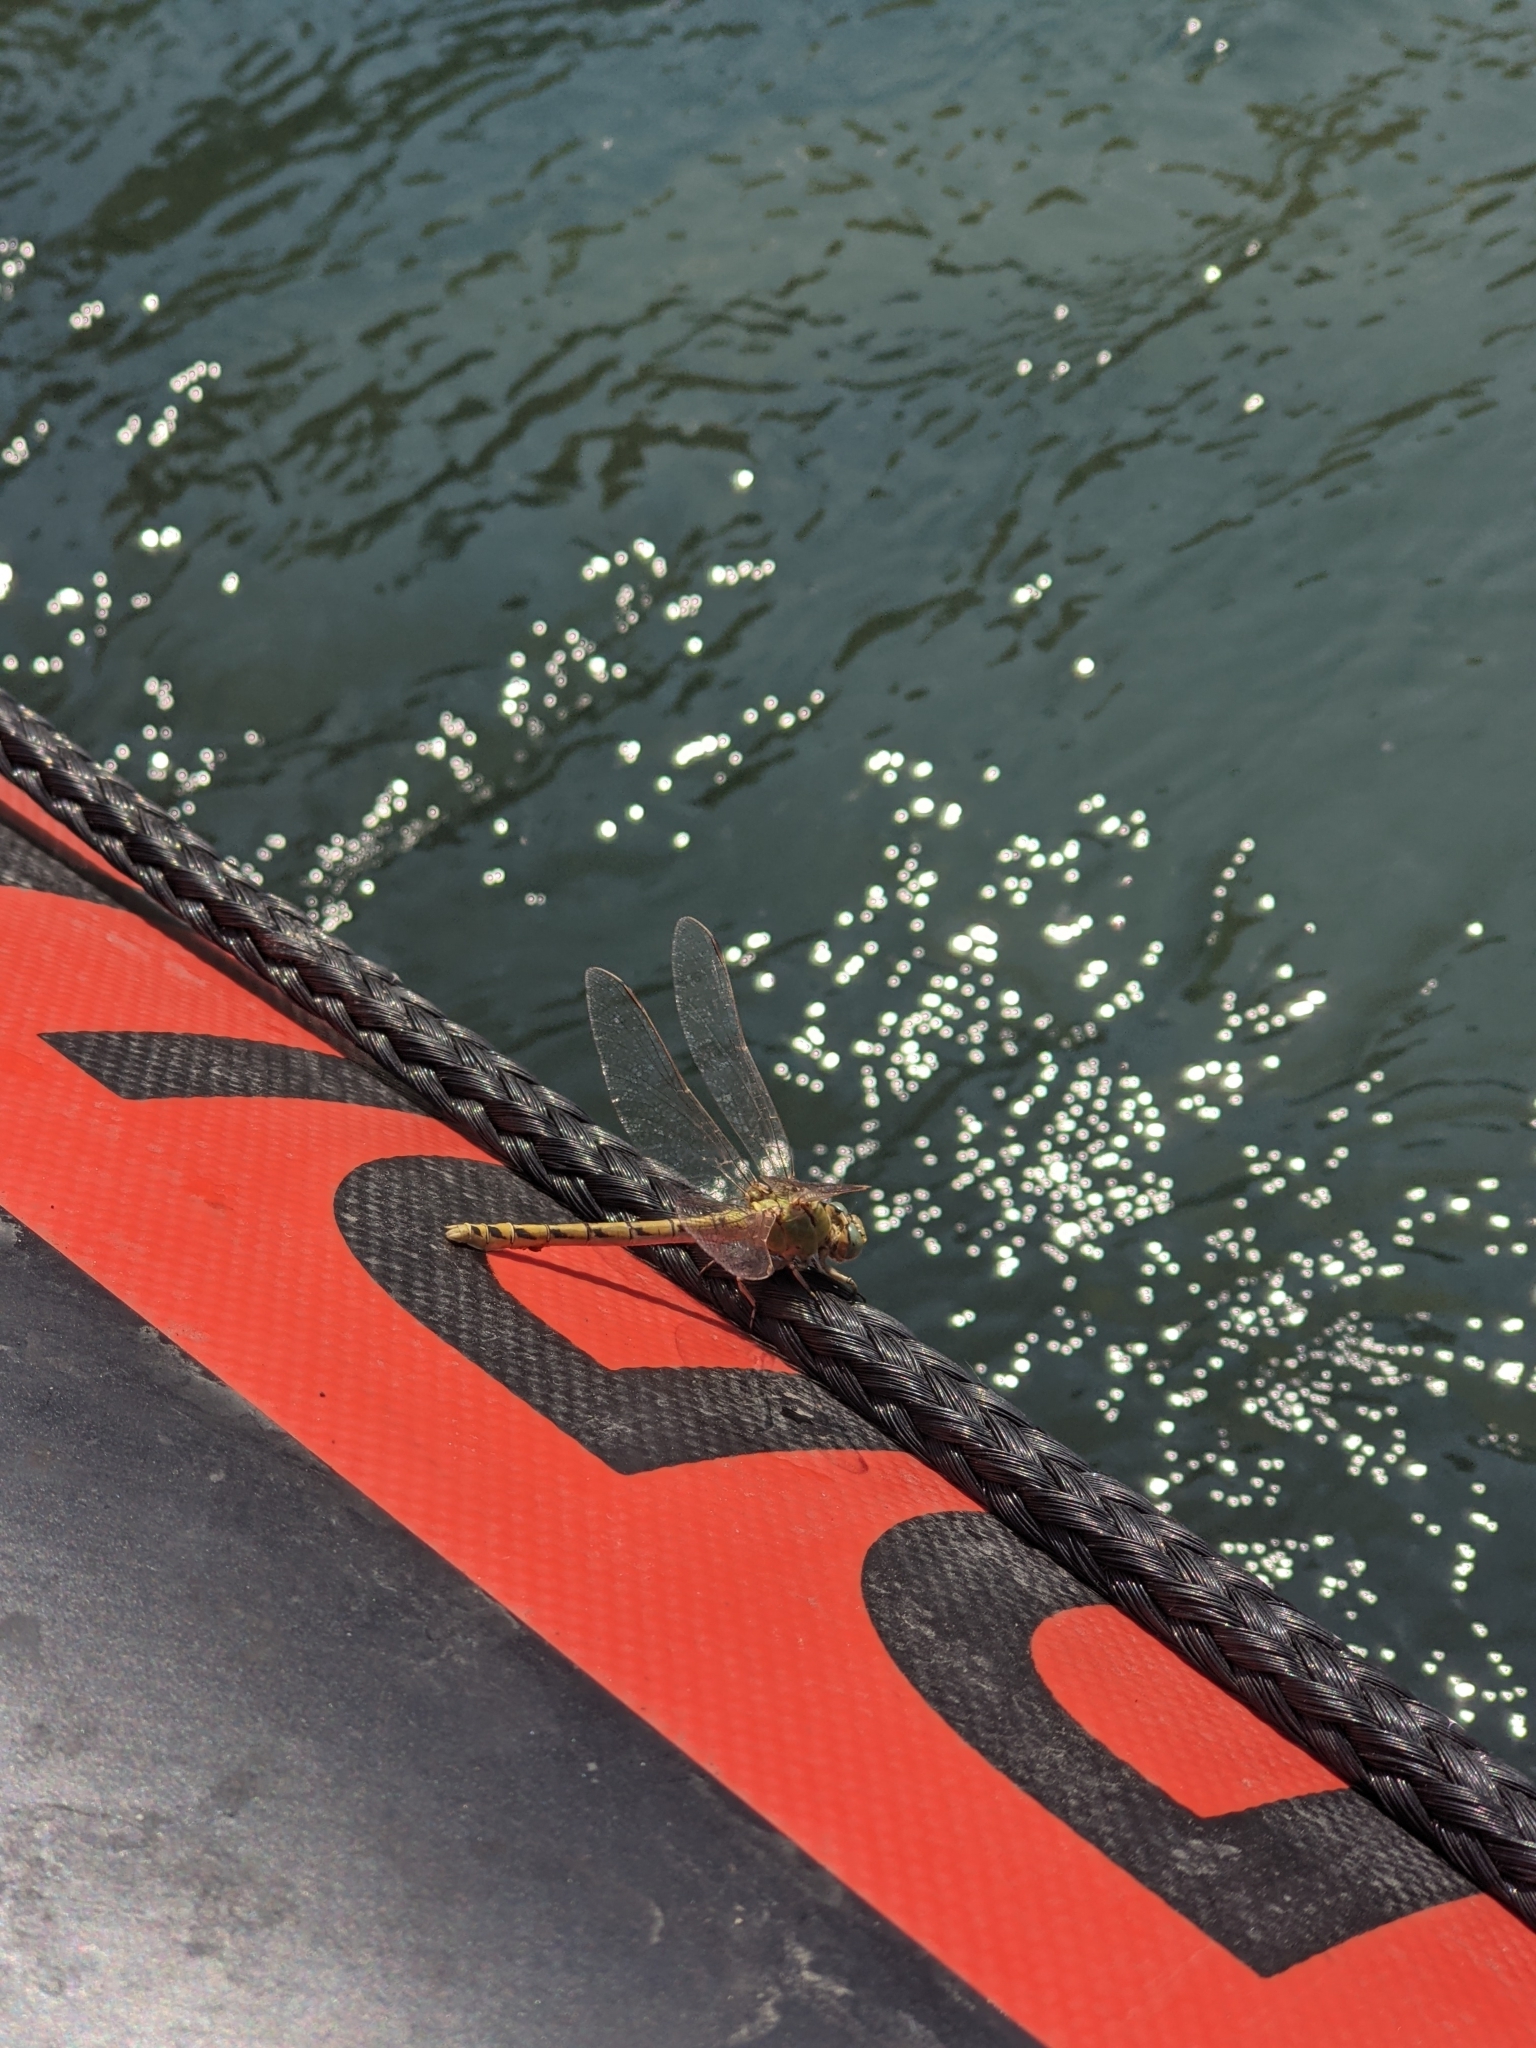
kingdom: Animalia
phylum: Arthropoda
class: Insecta
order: Odonata
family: Gomphidae
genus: Ophiogomphus
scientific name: Ophiogomphus severus
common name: Pale snaketail
